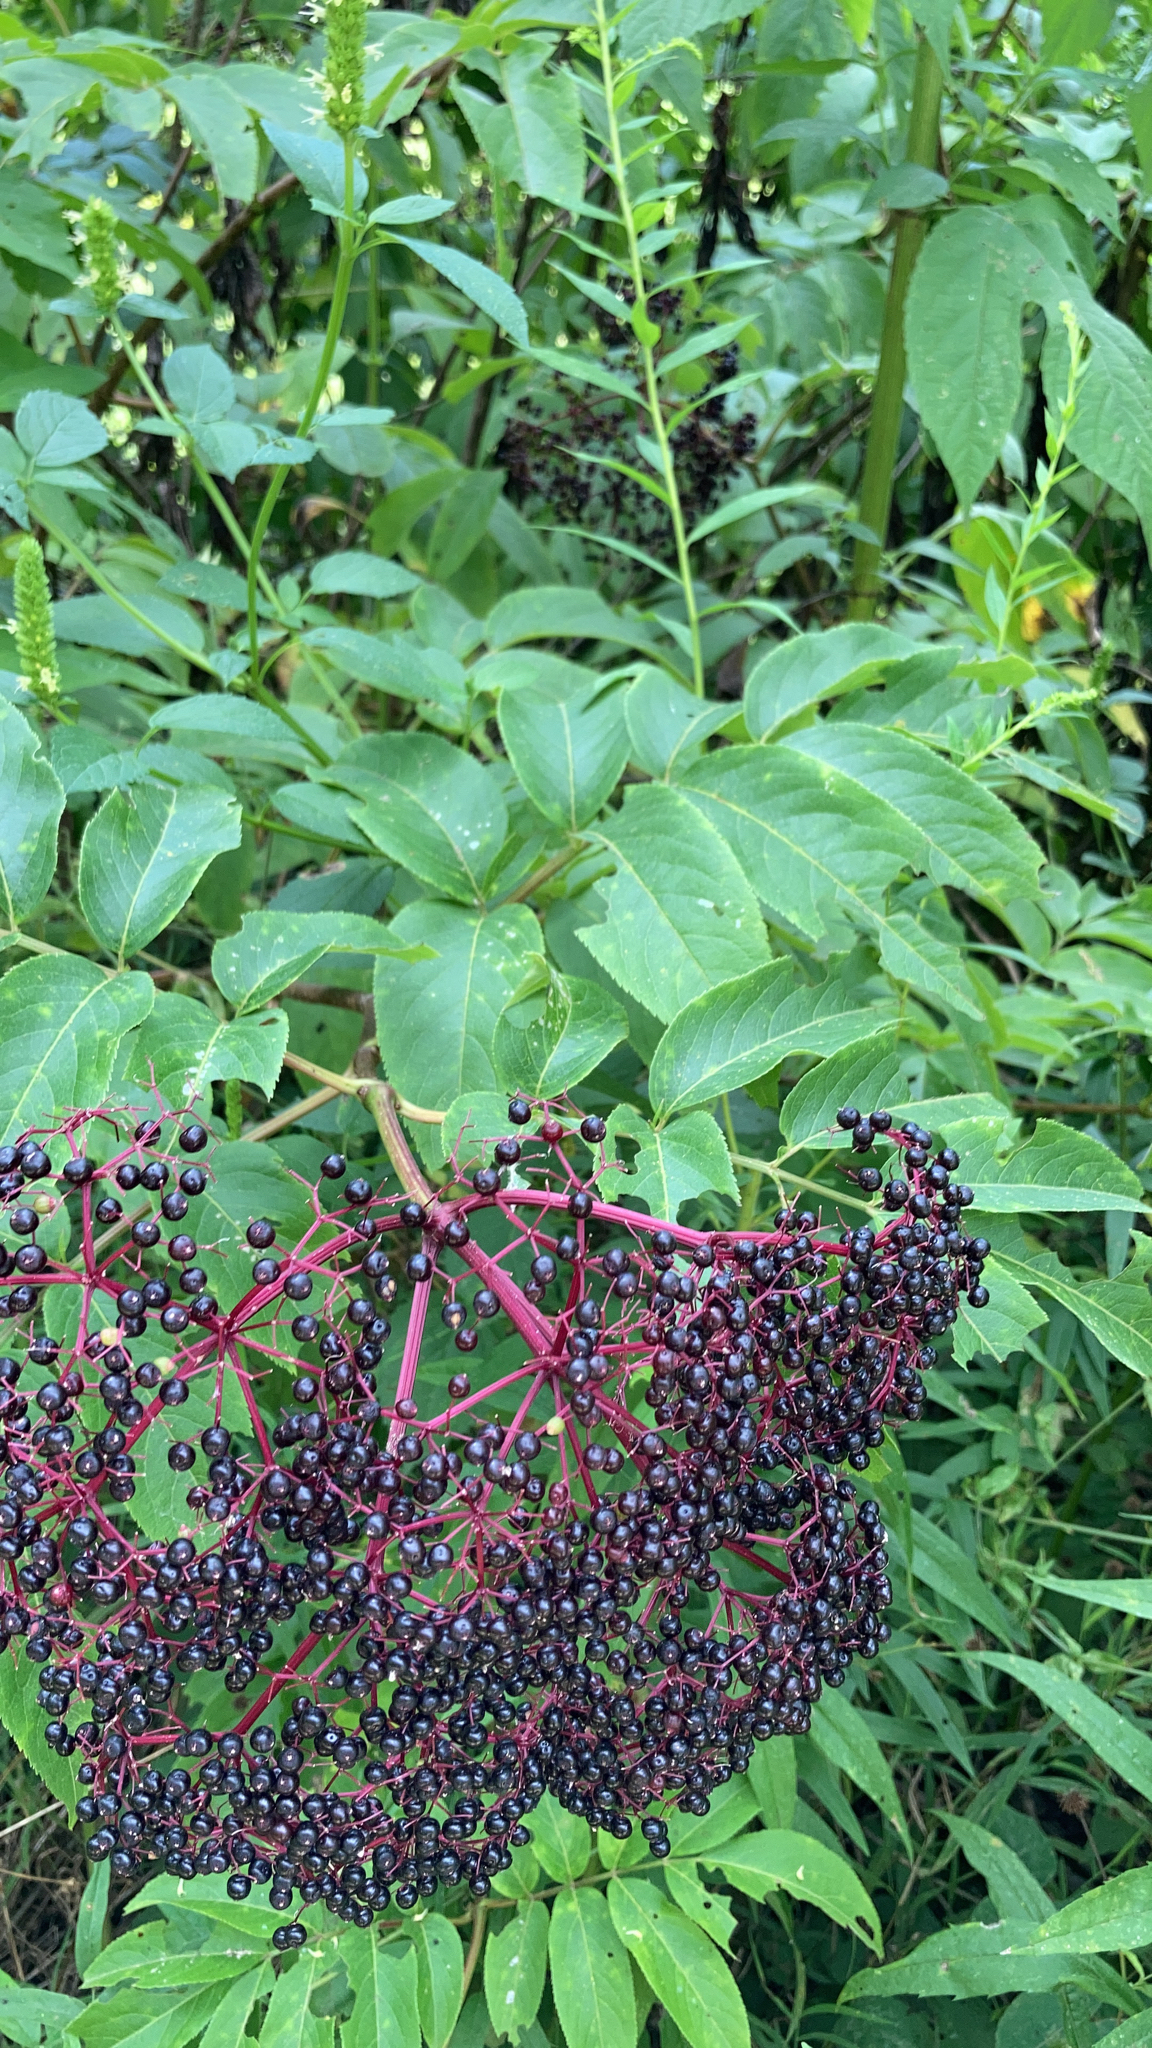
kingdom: Plantae
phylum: Tracheophyta
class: Magnoliopsida
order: Dipsacales
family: Viburnaceae
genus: Sambucus
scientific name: Sambucus canadensis
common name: American elder
